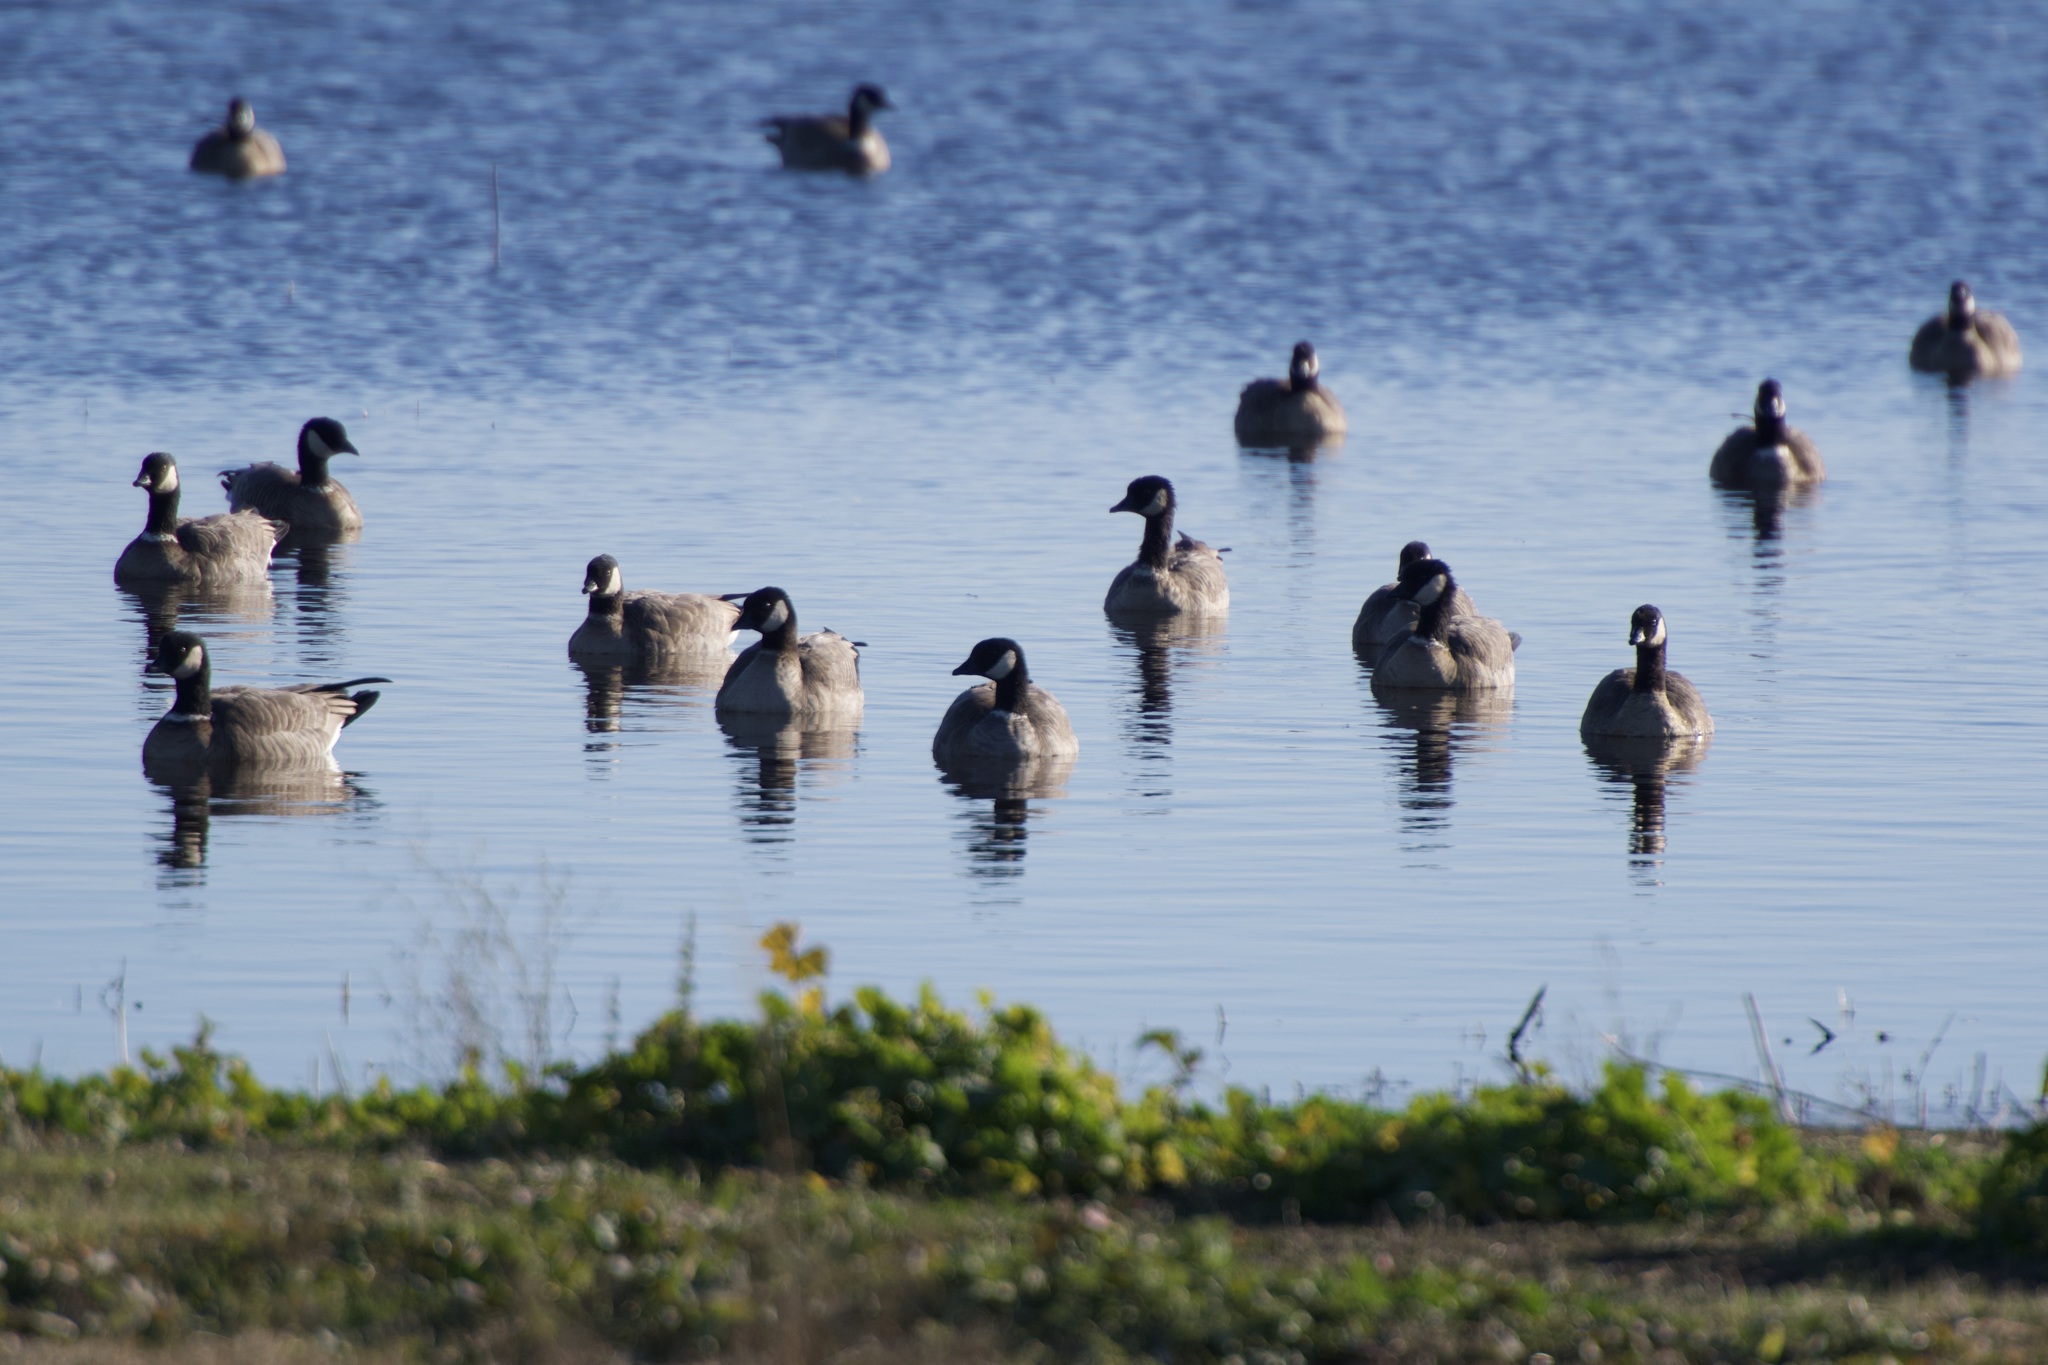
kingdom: Animalia
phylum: Chordata
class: Aves
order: Anseriformes
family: Anatidae
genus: Branta
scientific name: Branta hutchinsii
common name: Cackling goose
